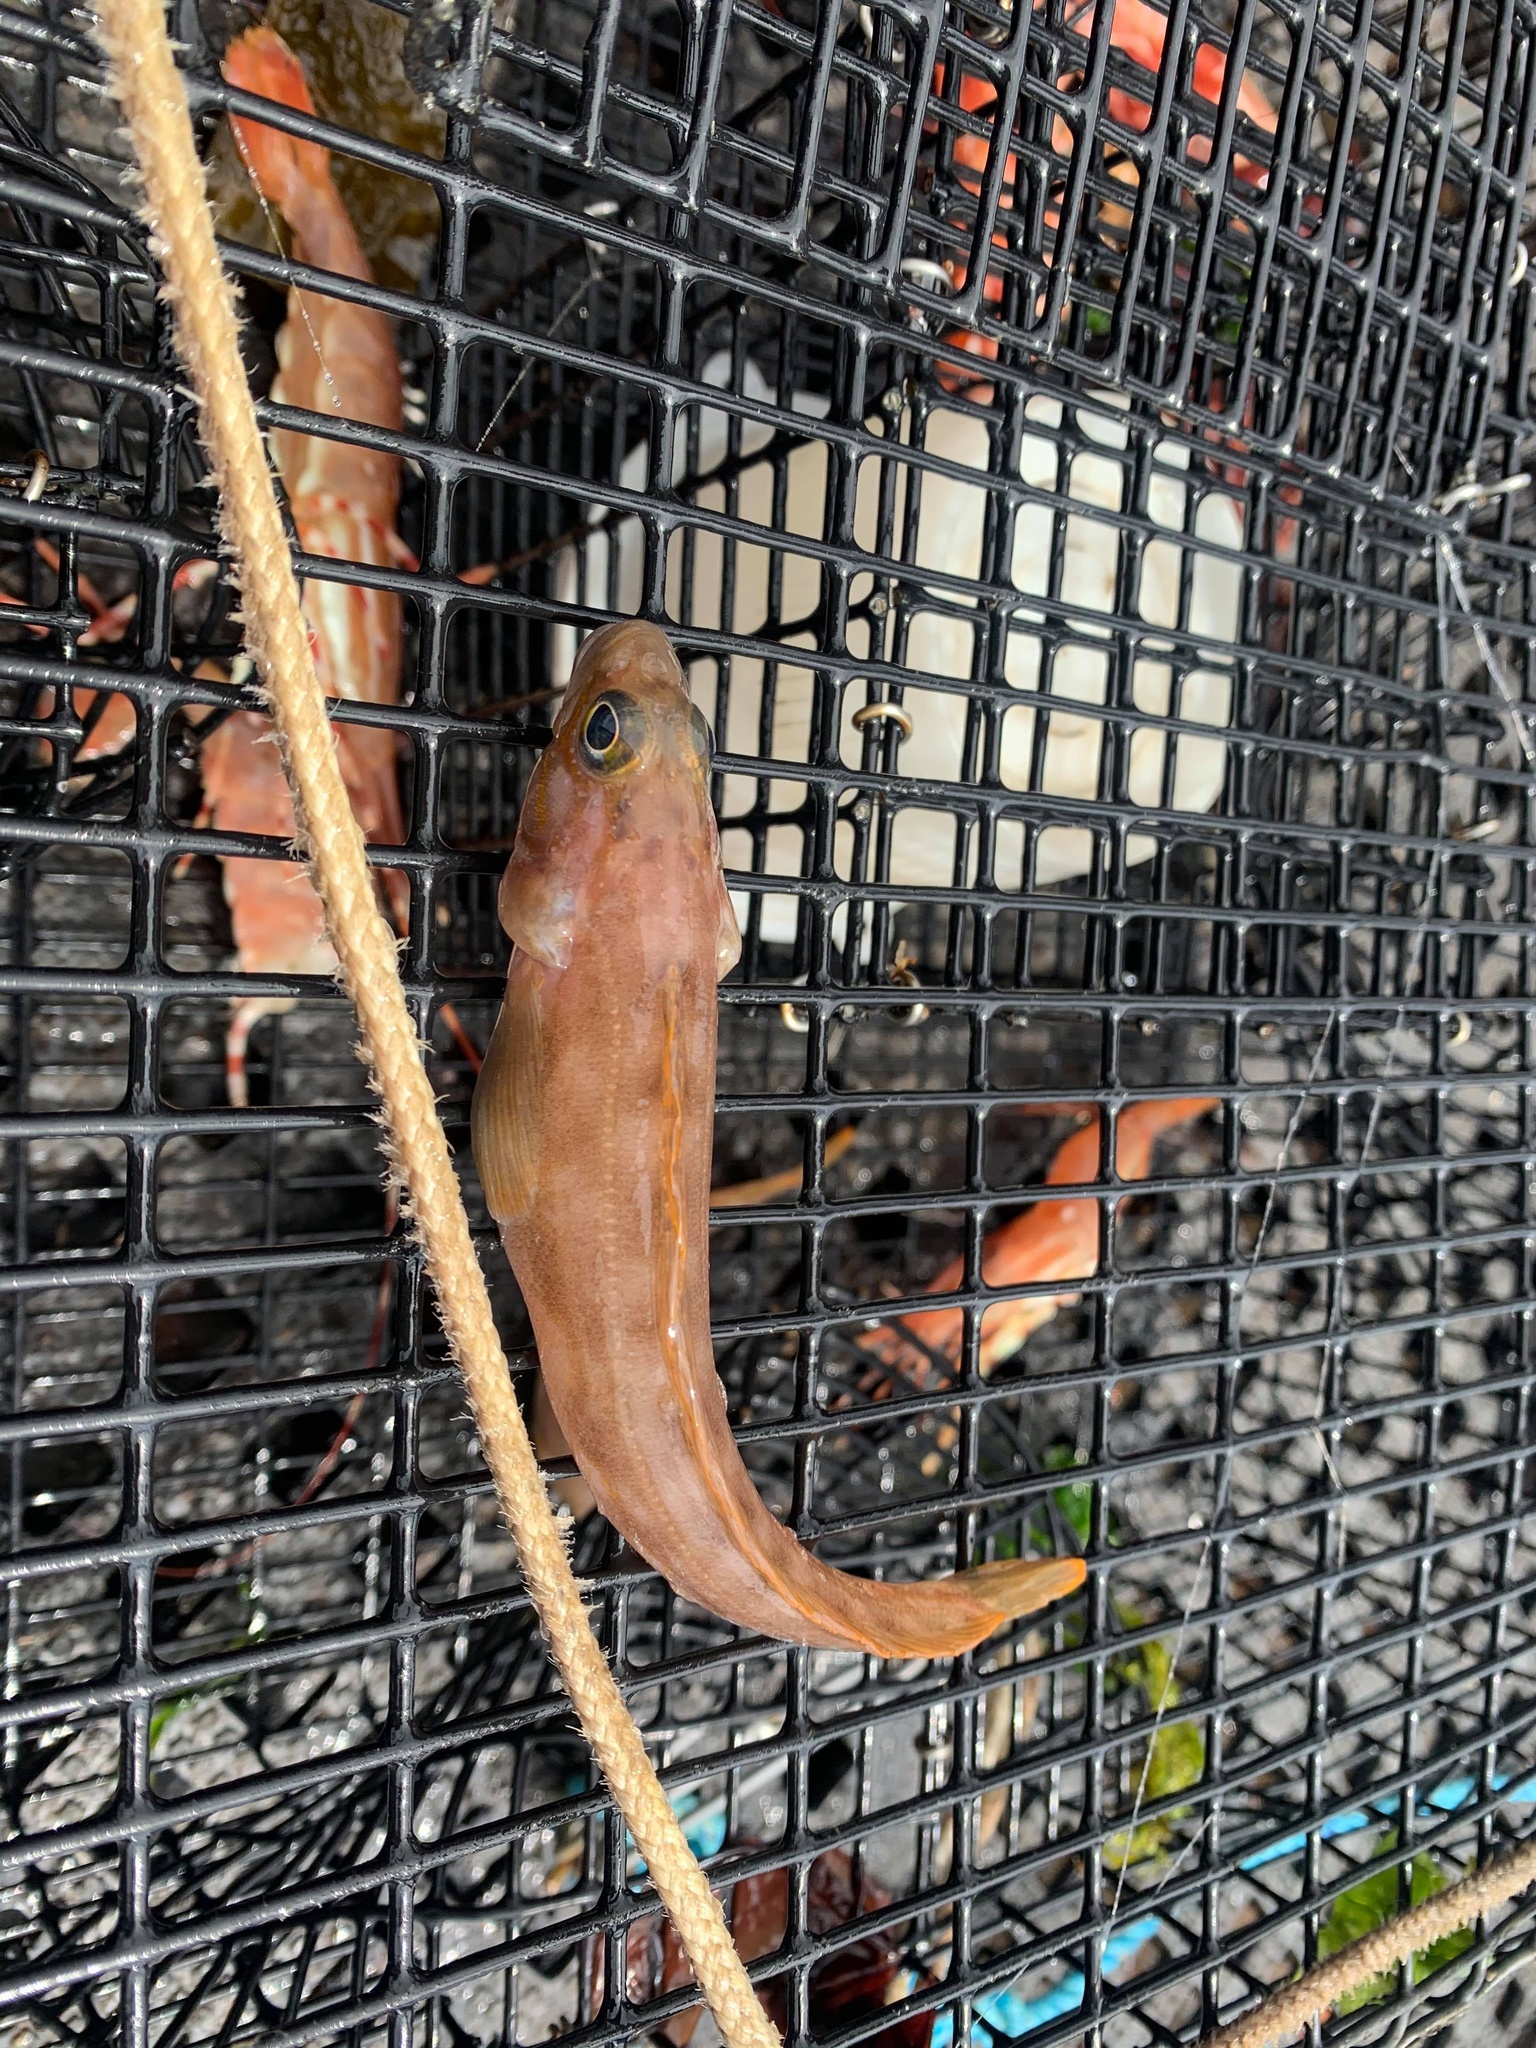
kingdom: Animalia
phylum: Chordata
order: Perciformes
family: Bathymasteridae
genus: Ronquilus
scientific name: Ronquilus jordani
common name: Northern ronquil
